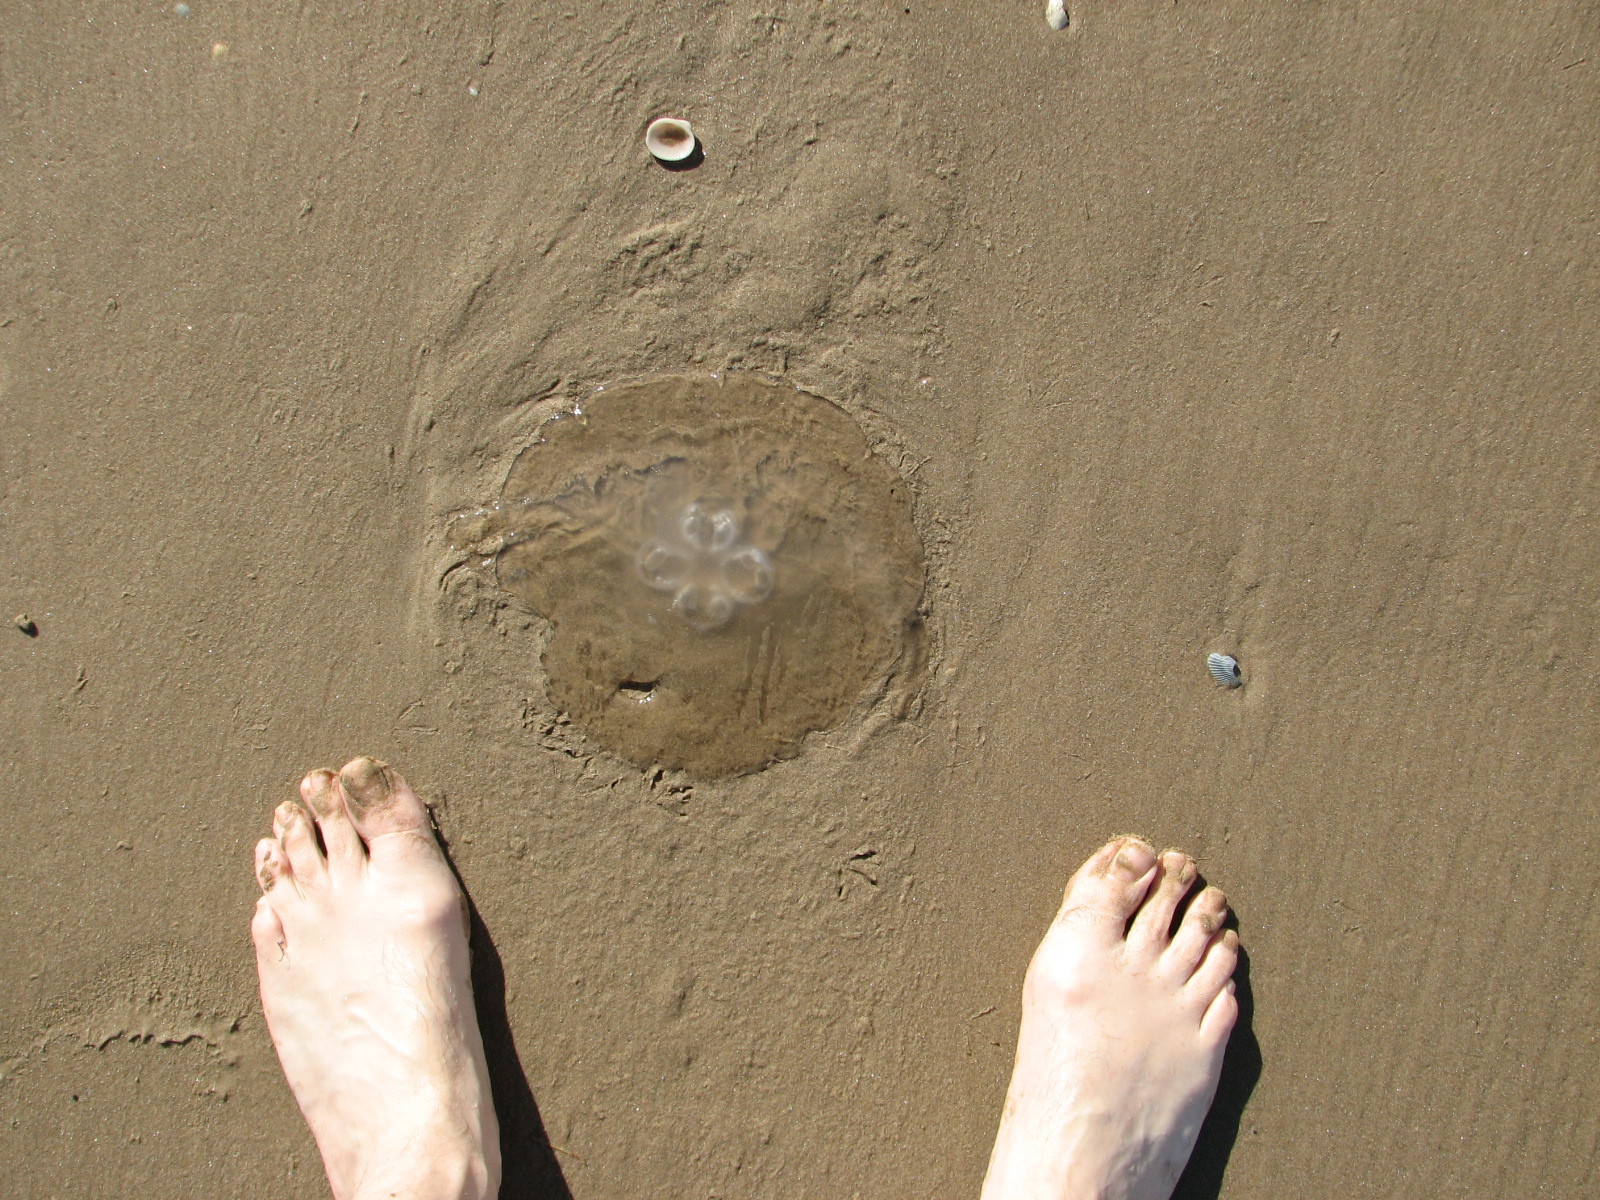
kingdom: Animalia
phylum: Cnidaria
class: Scyphozoa
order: Semaeostomeae
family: Ulmaridae
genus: Aurelia
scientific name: Aurelia marginalis
